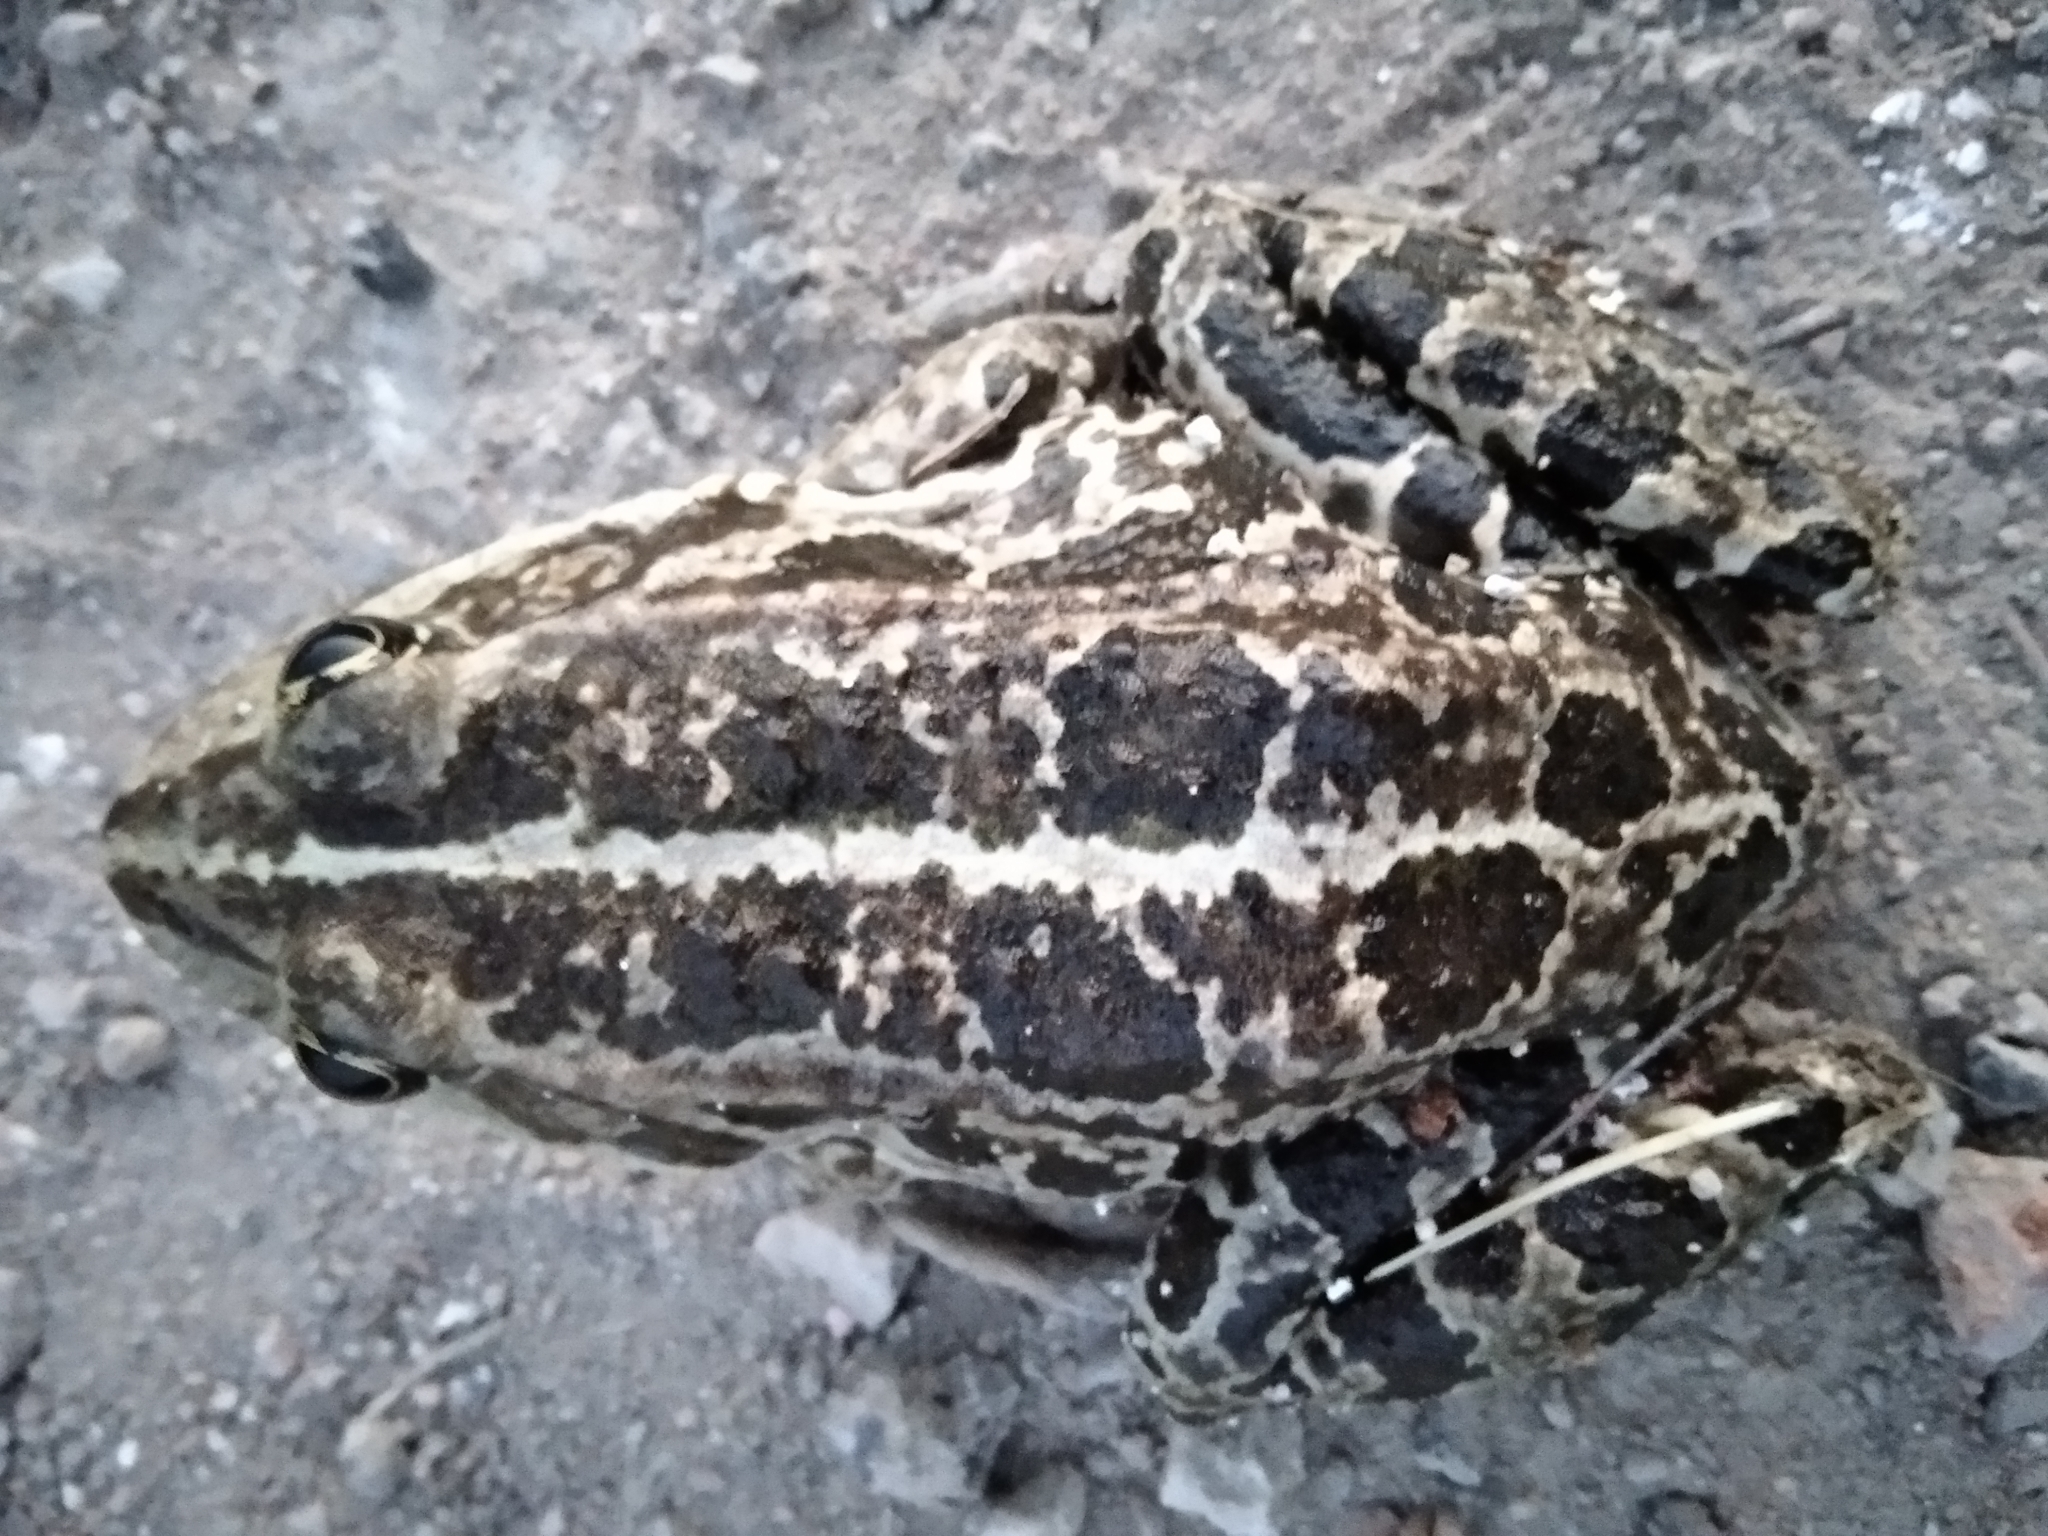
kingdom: Animalia
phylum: Chordata
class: Amphibia
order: Anura
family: Ranidae
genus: Pelophylax
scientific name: Pelophylax
